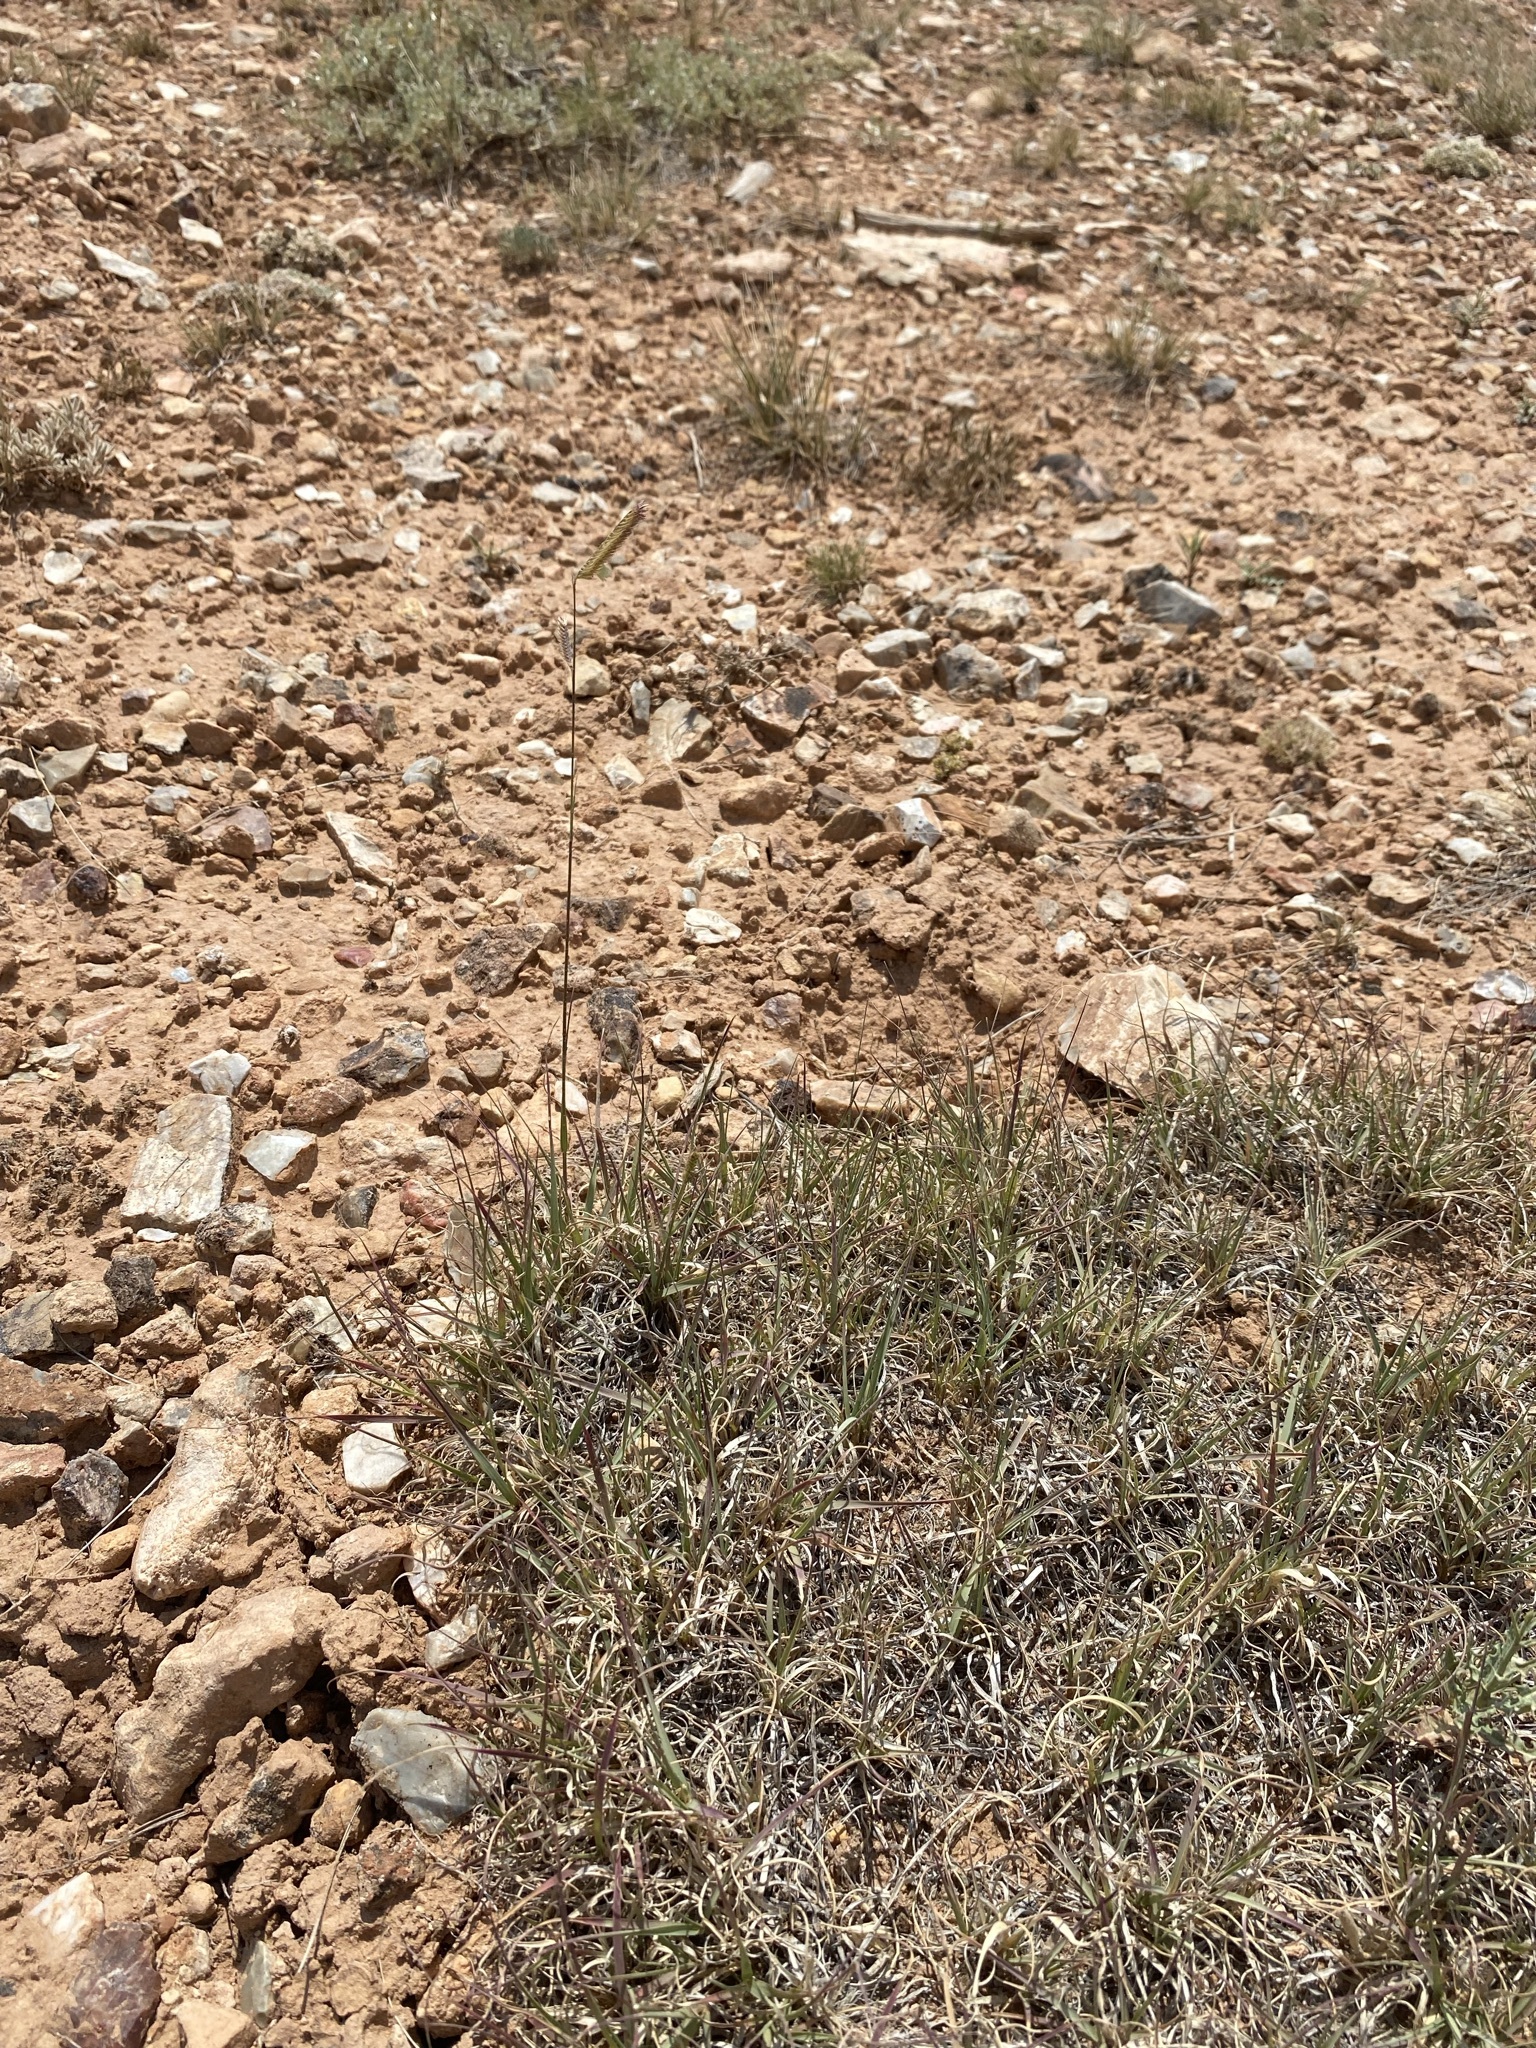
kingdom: Plantae
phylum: Tracheophyta
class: Liliopsida
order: Poales
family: Poaceae
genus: Bouteloua
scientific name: Bouteloua gracilis
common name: Blue grama
